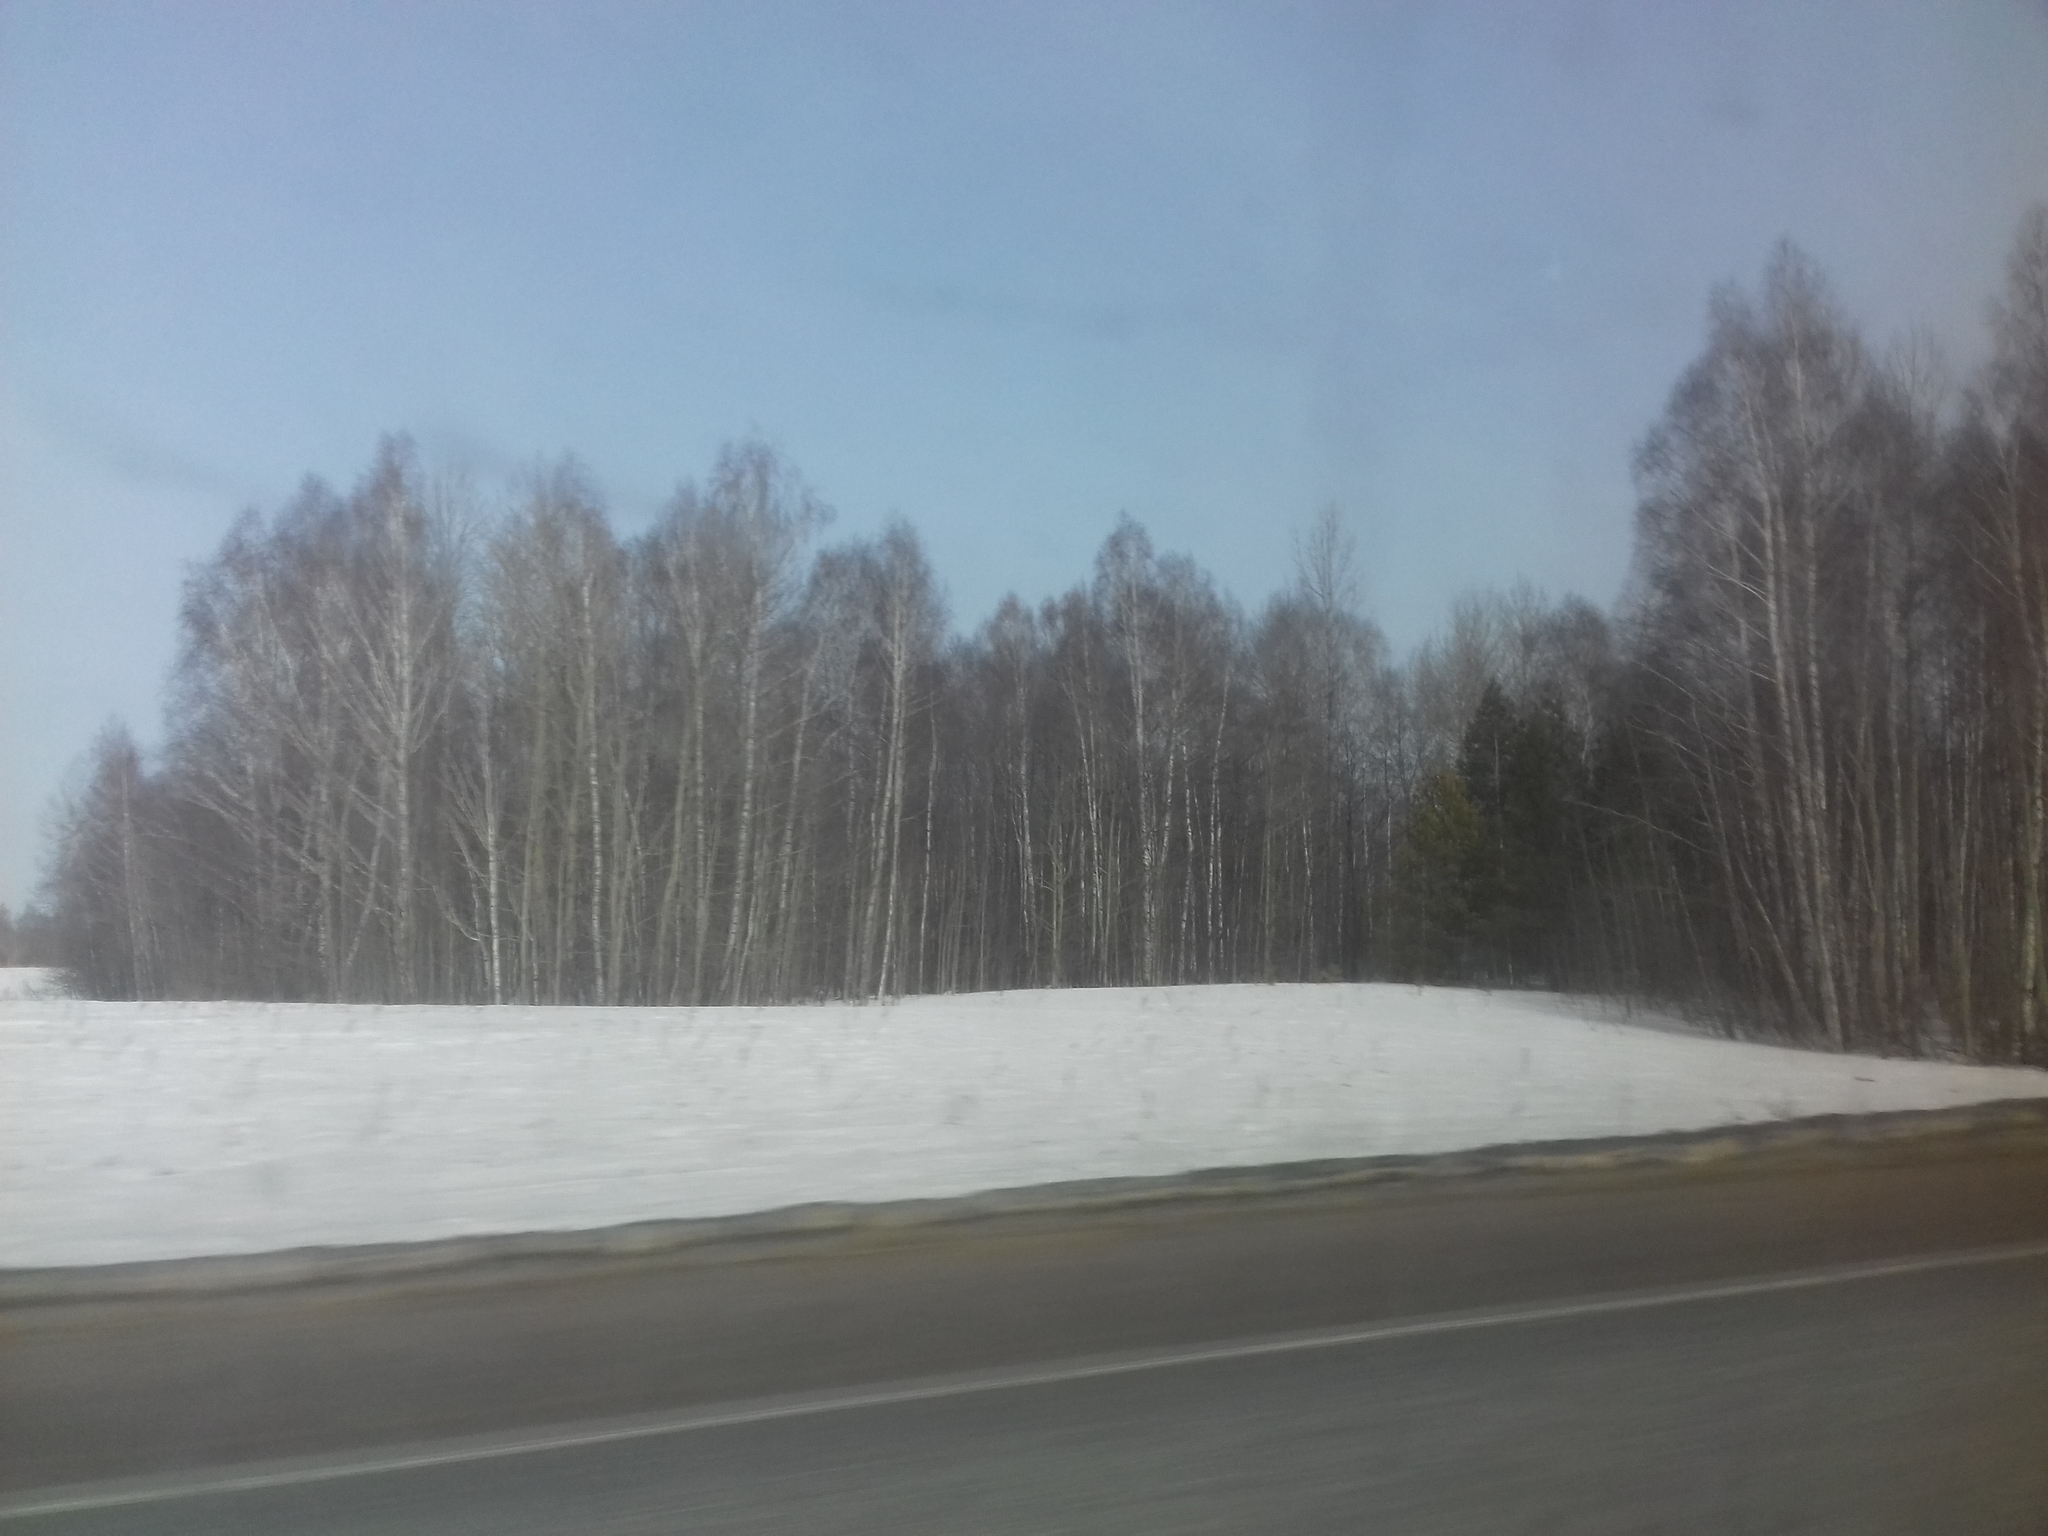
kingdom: Plantae
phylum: Tracheophyta
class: Magnoliopsida
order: Fagales
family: Betulaceae
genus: Betula
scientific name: Betula pendula
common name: Silver birch
